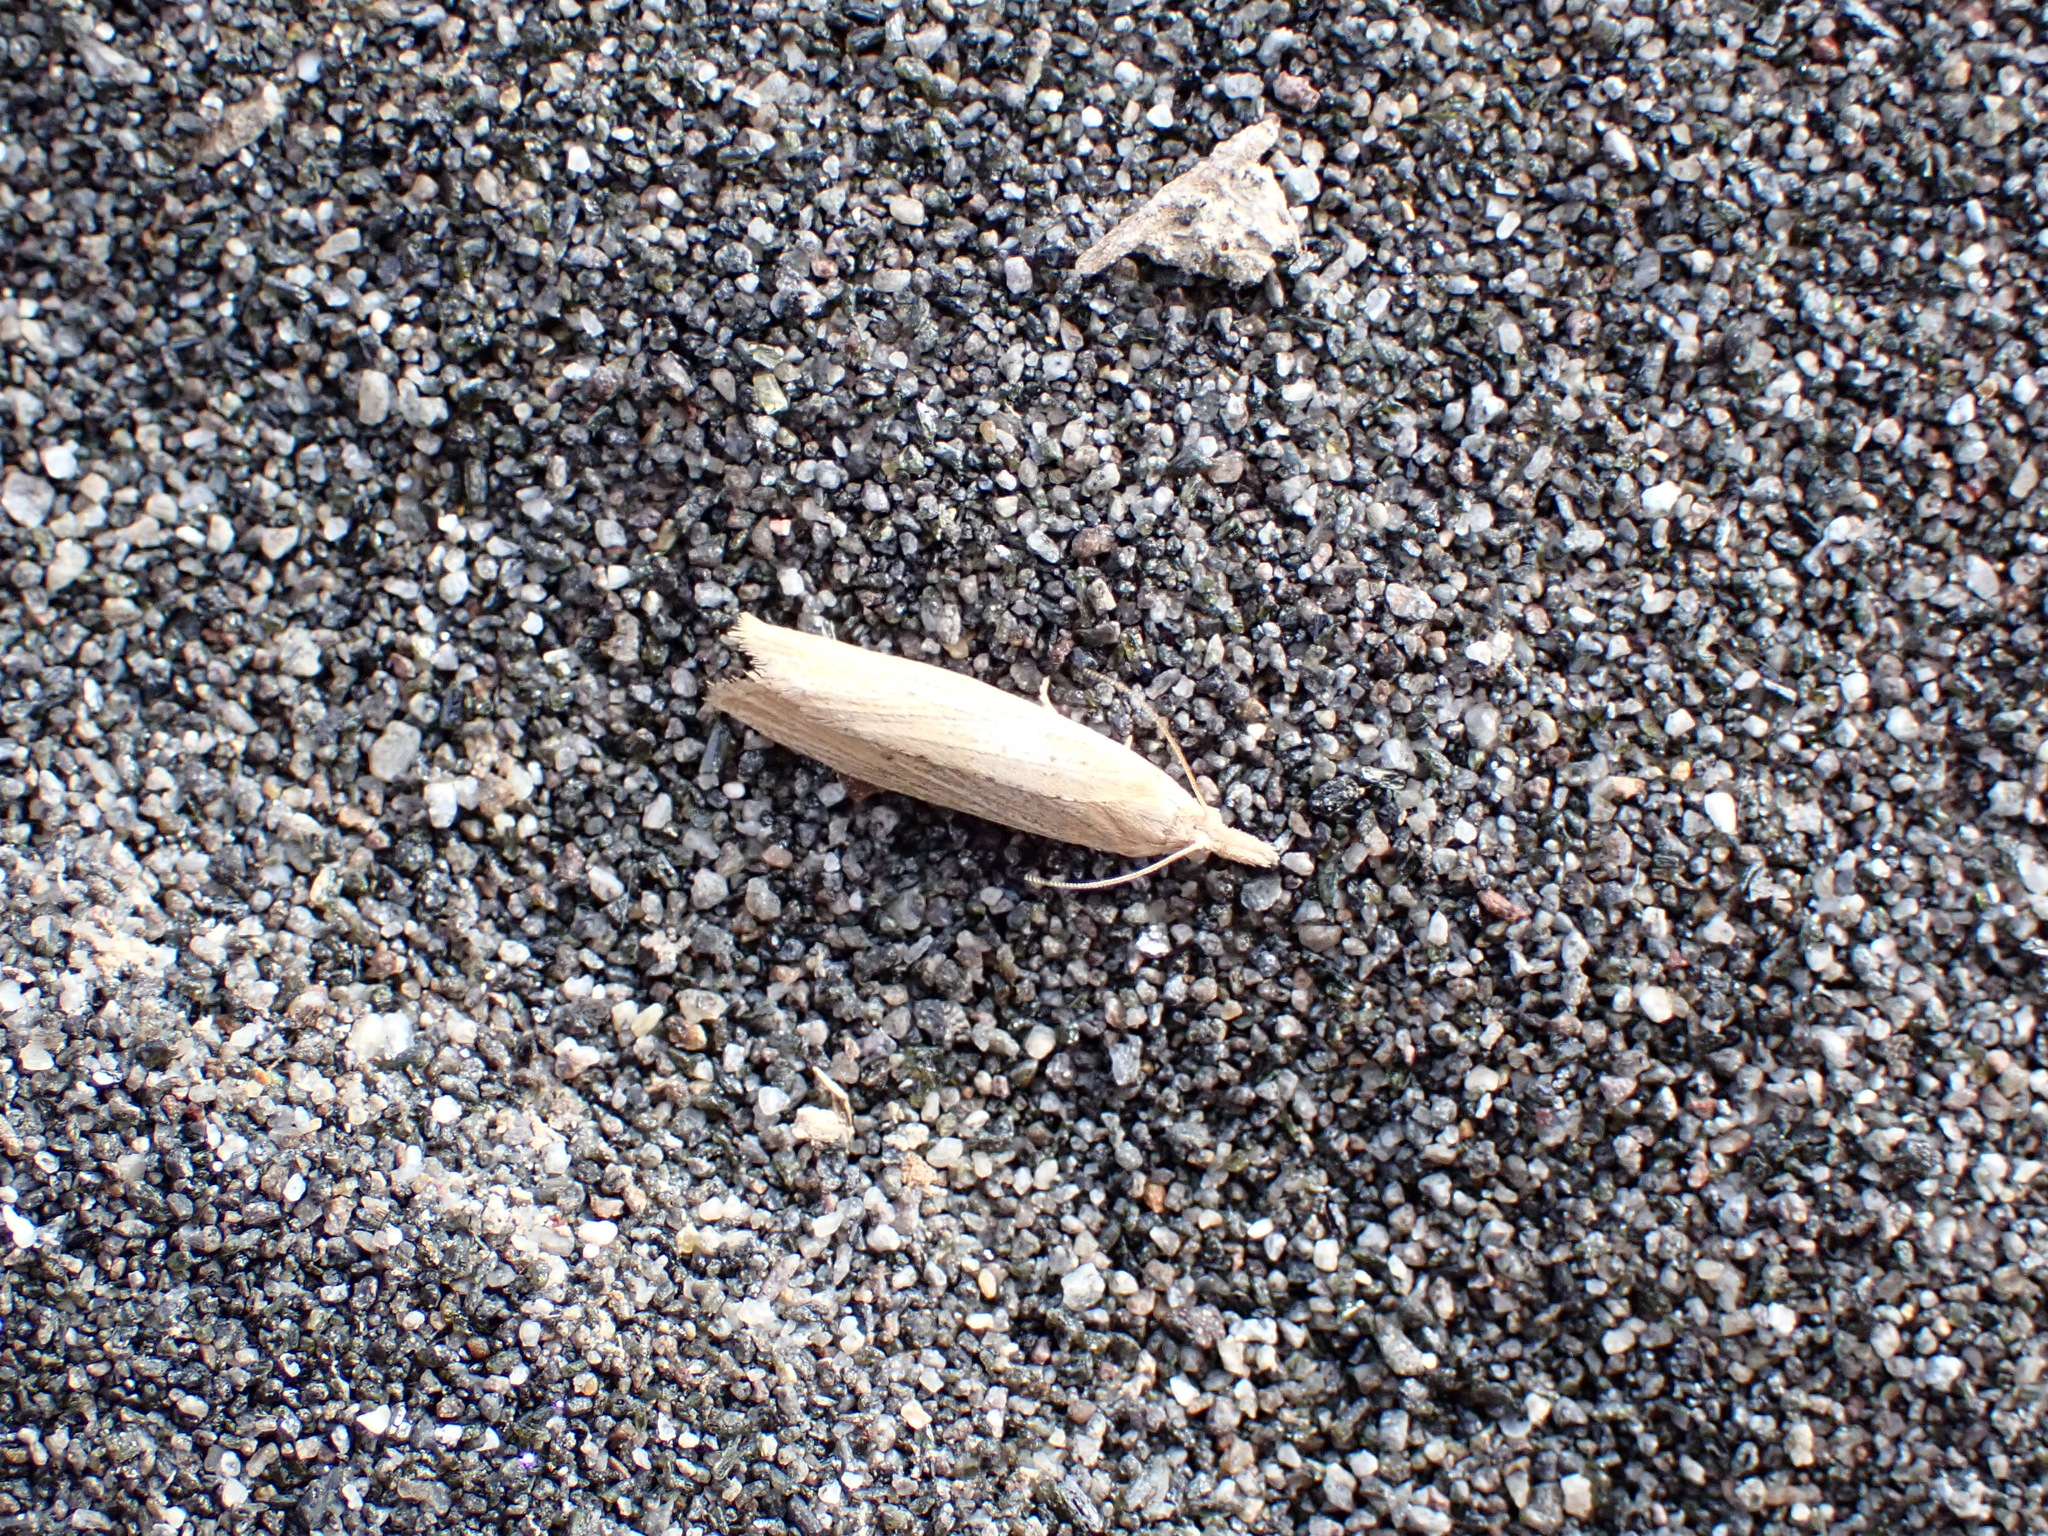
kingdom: Animalia
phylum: Arthropoda
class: Insecta
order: Lepidoptera
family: Tortricidae
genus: Bactra
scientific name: Bactra noteraula
